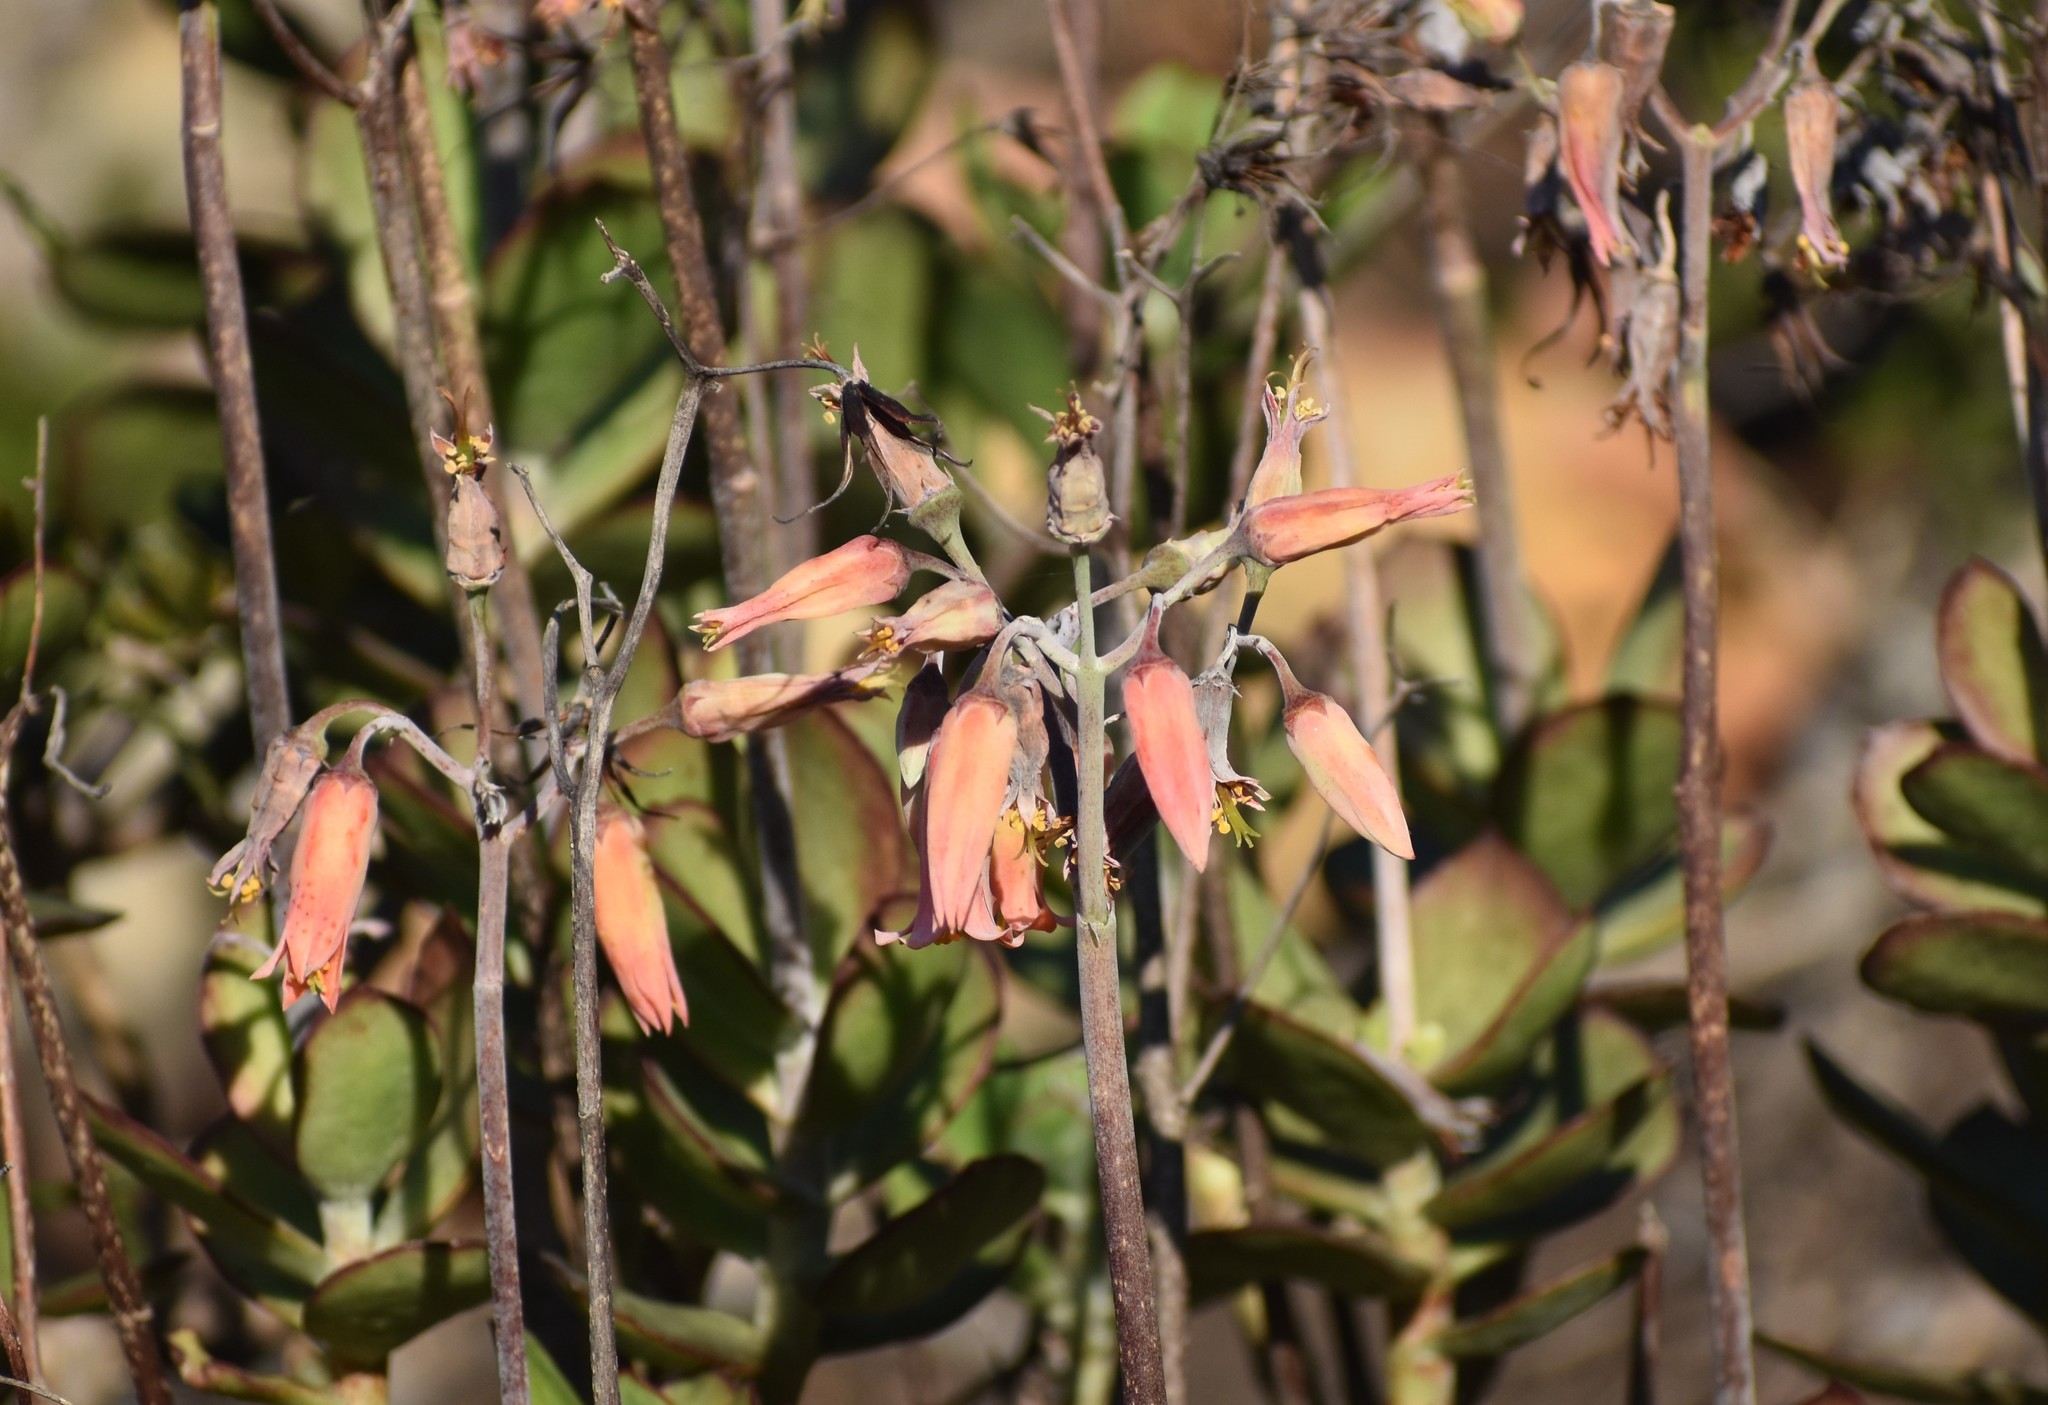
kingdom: Plantae
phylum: Tracheophyta
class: Magnoliopsida
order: Saxifragales
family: Crassulaceae
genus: Cotyledon
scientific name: Cotyledon orbiculata
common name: Pig's ear
